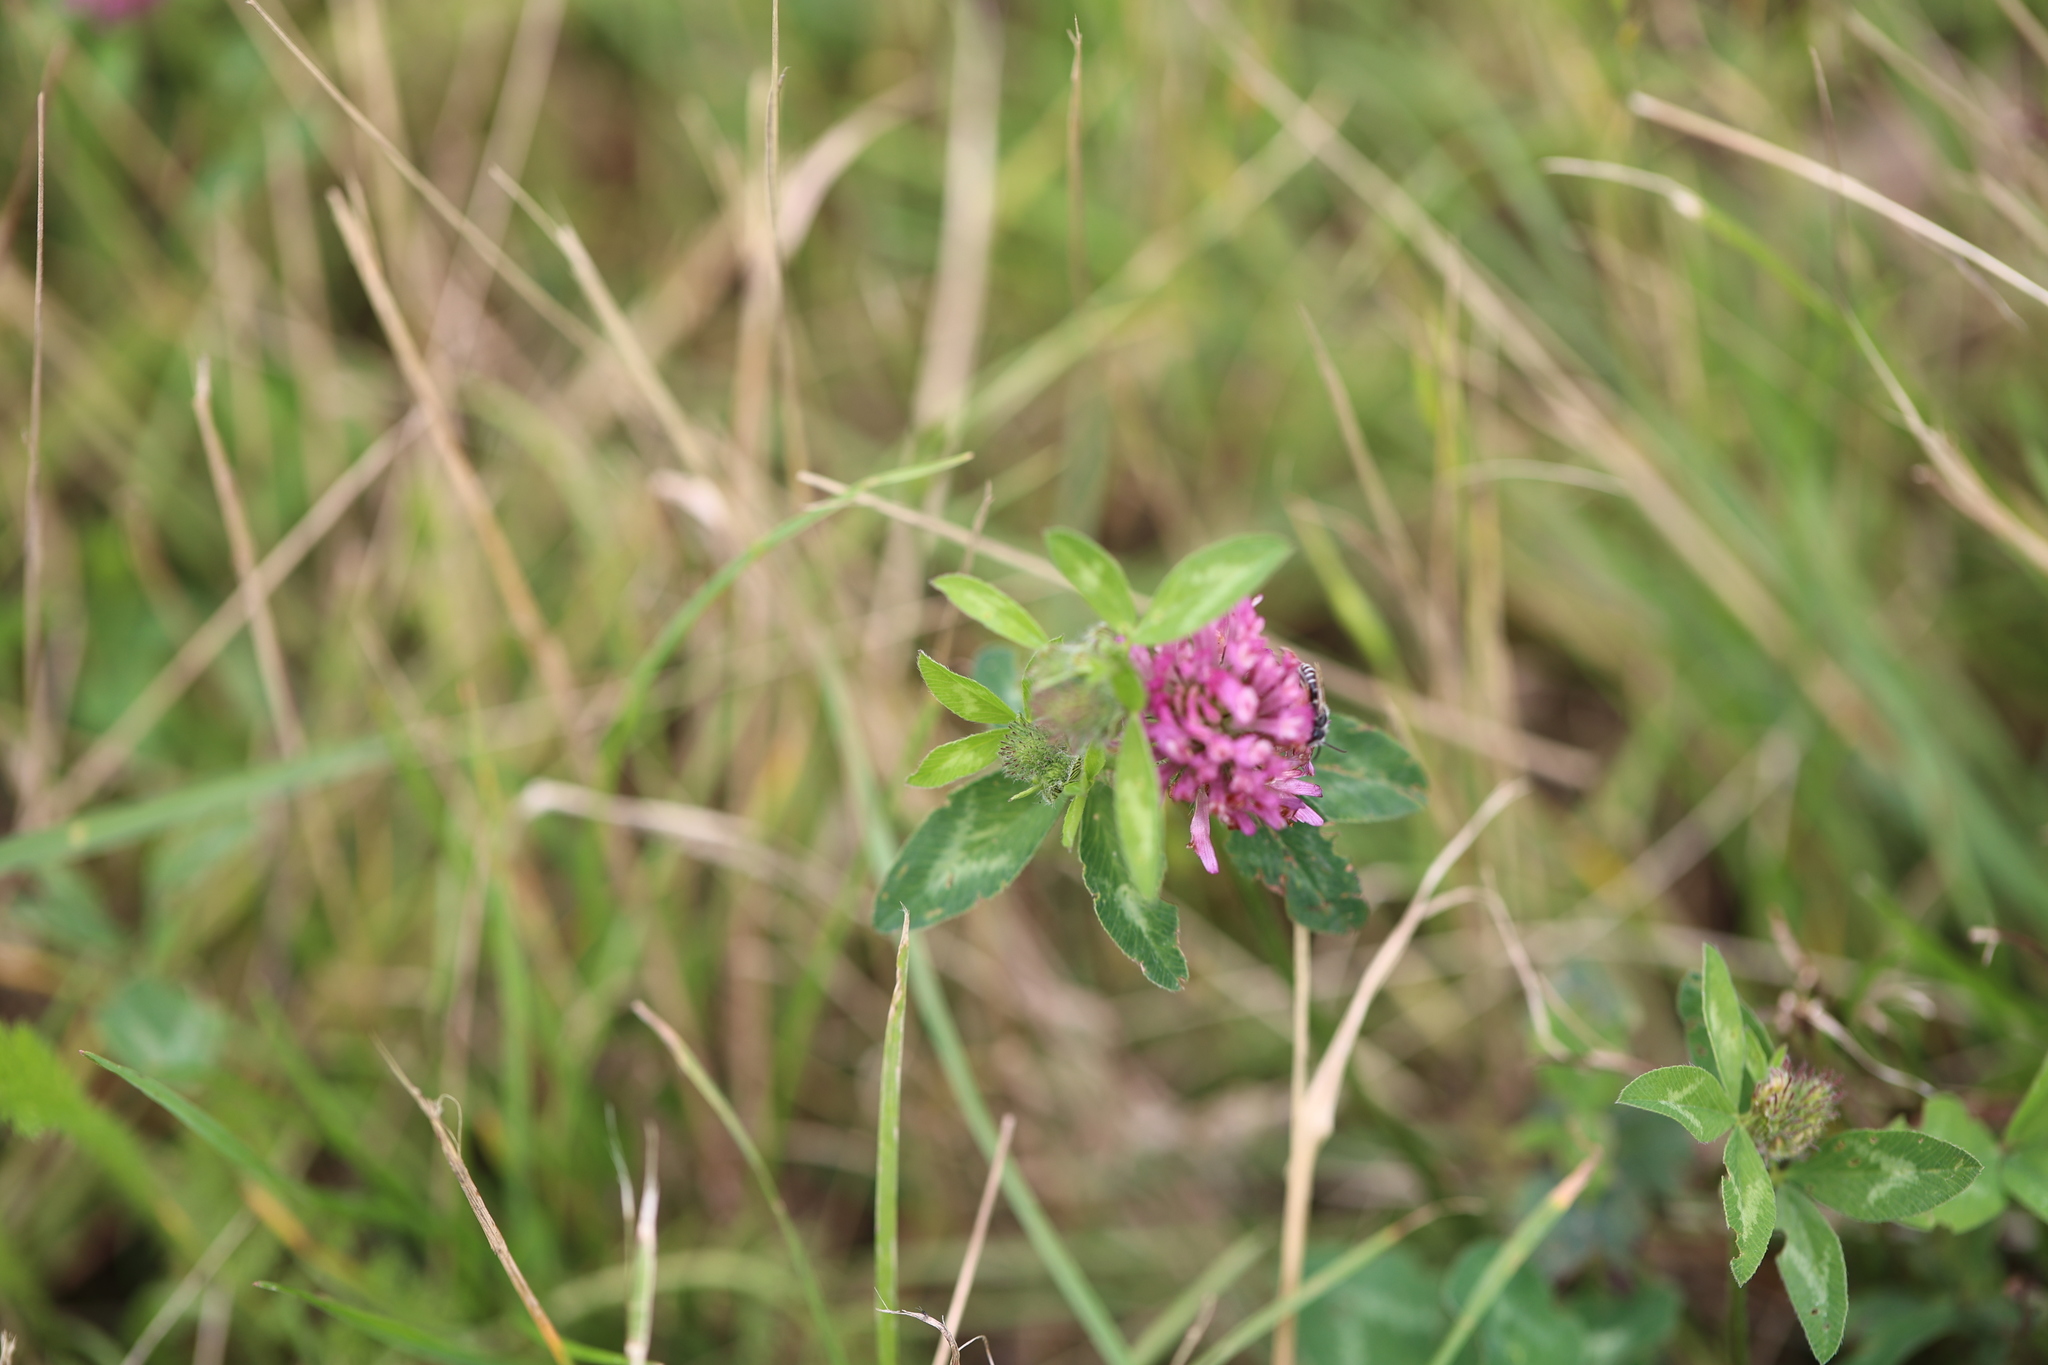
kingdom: Plantae
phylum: Tracheophyta
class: Magnoliopsida
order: Fabales
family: Fabaceae
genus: Trifolium
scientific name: Trifolium pratense
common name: Red clover
